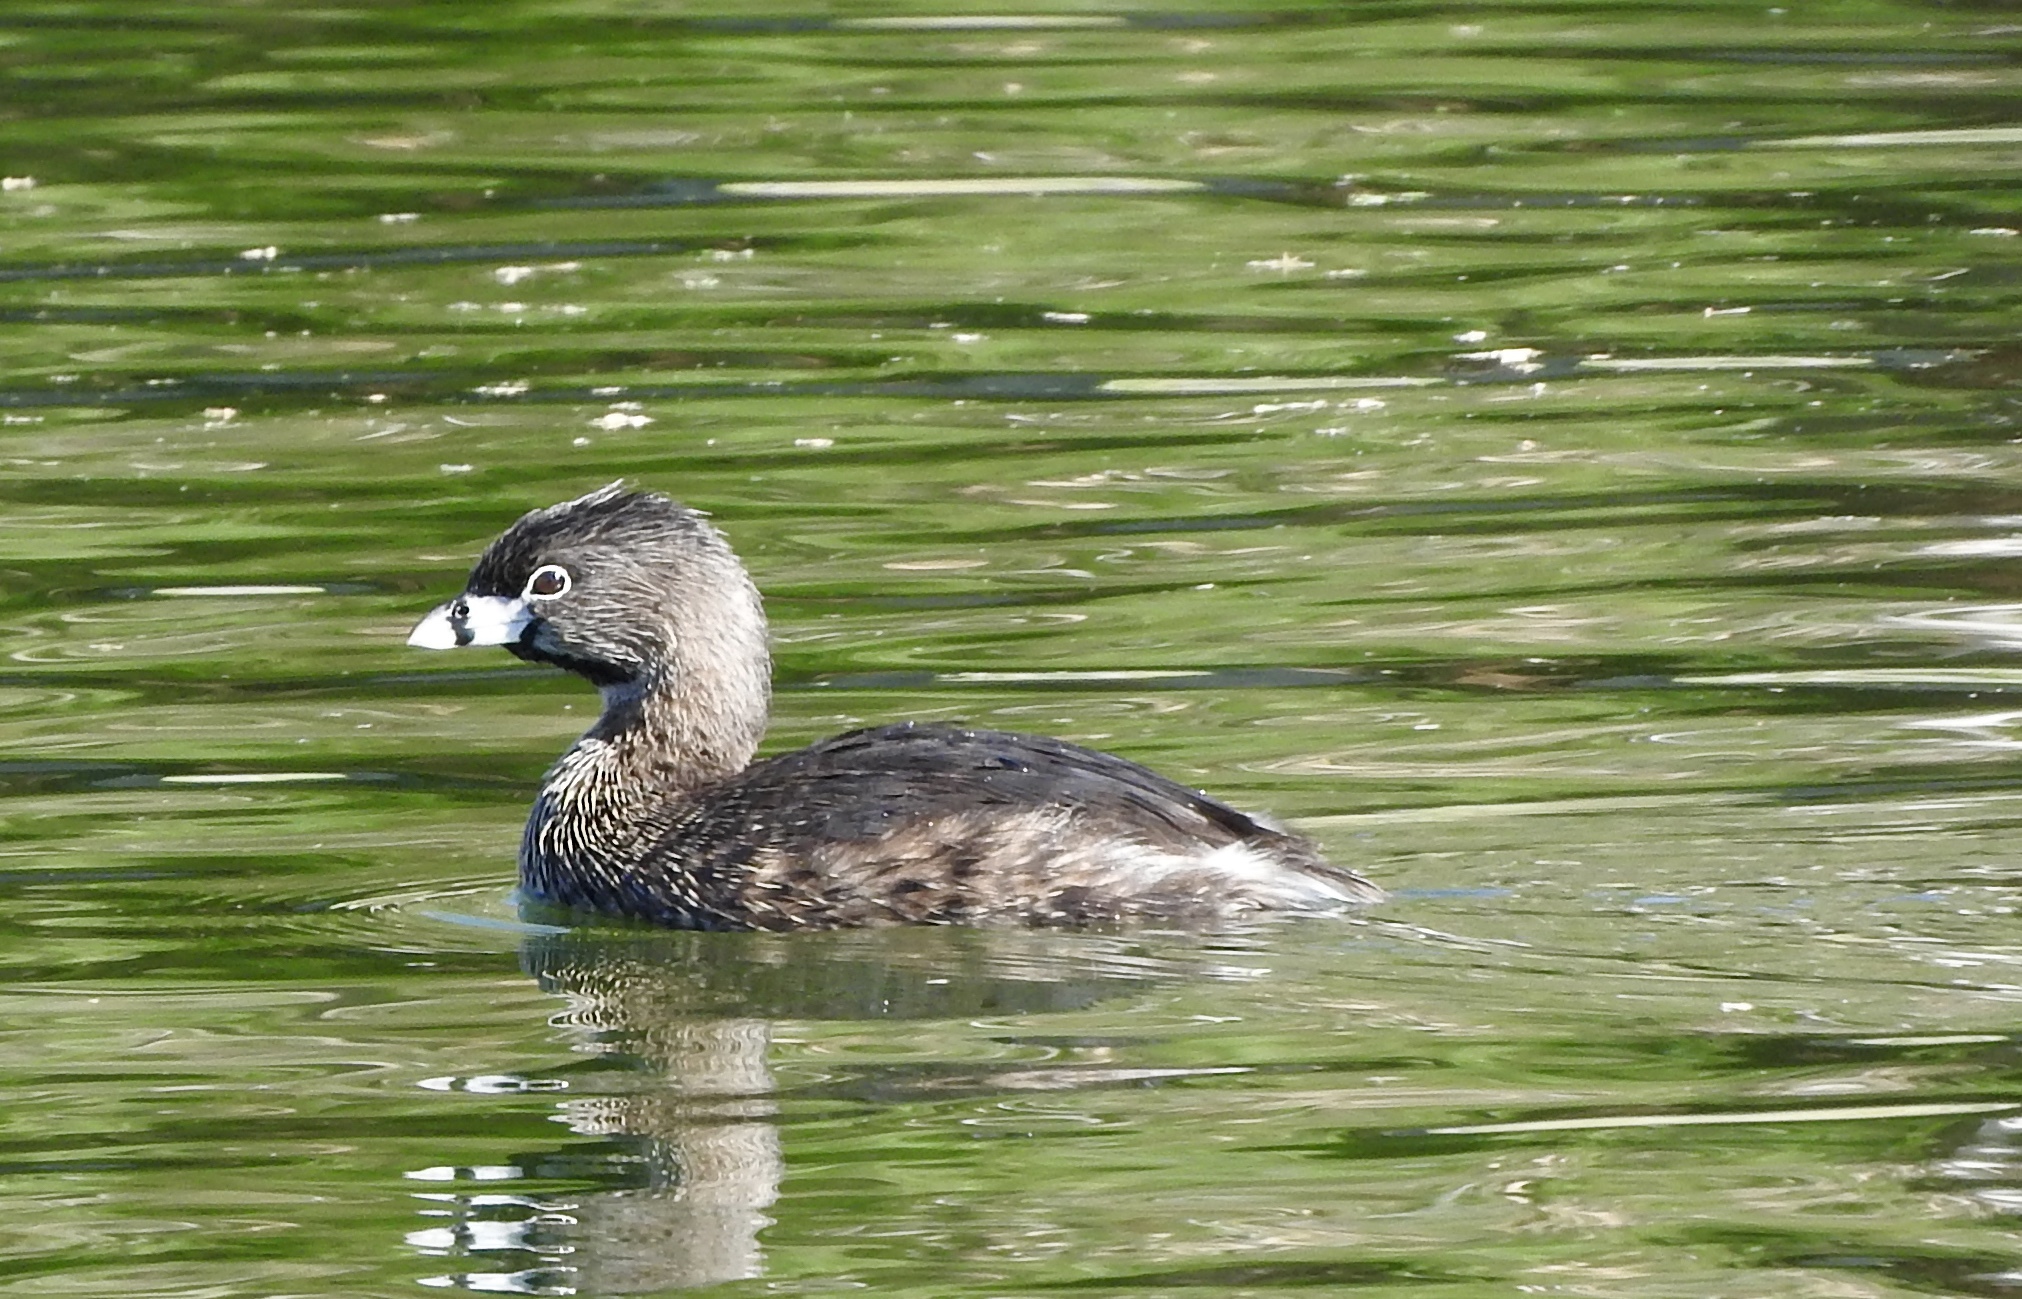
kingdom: Animalia
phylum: Chordata
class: Aves
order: Podicipediformes
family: Podicipedidae
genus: Podilymbus
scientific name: Podilymbus podiceps
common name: Pied-billed grebe
